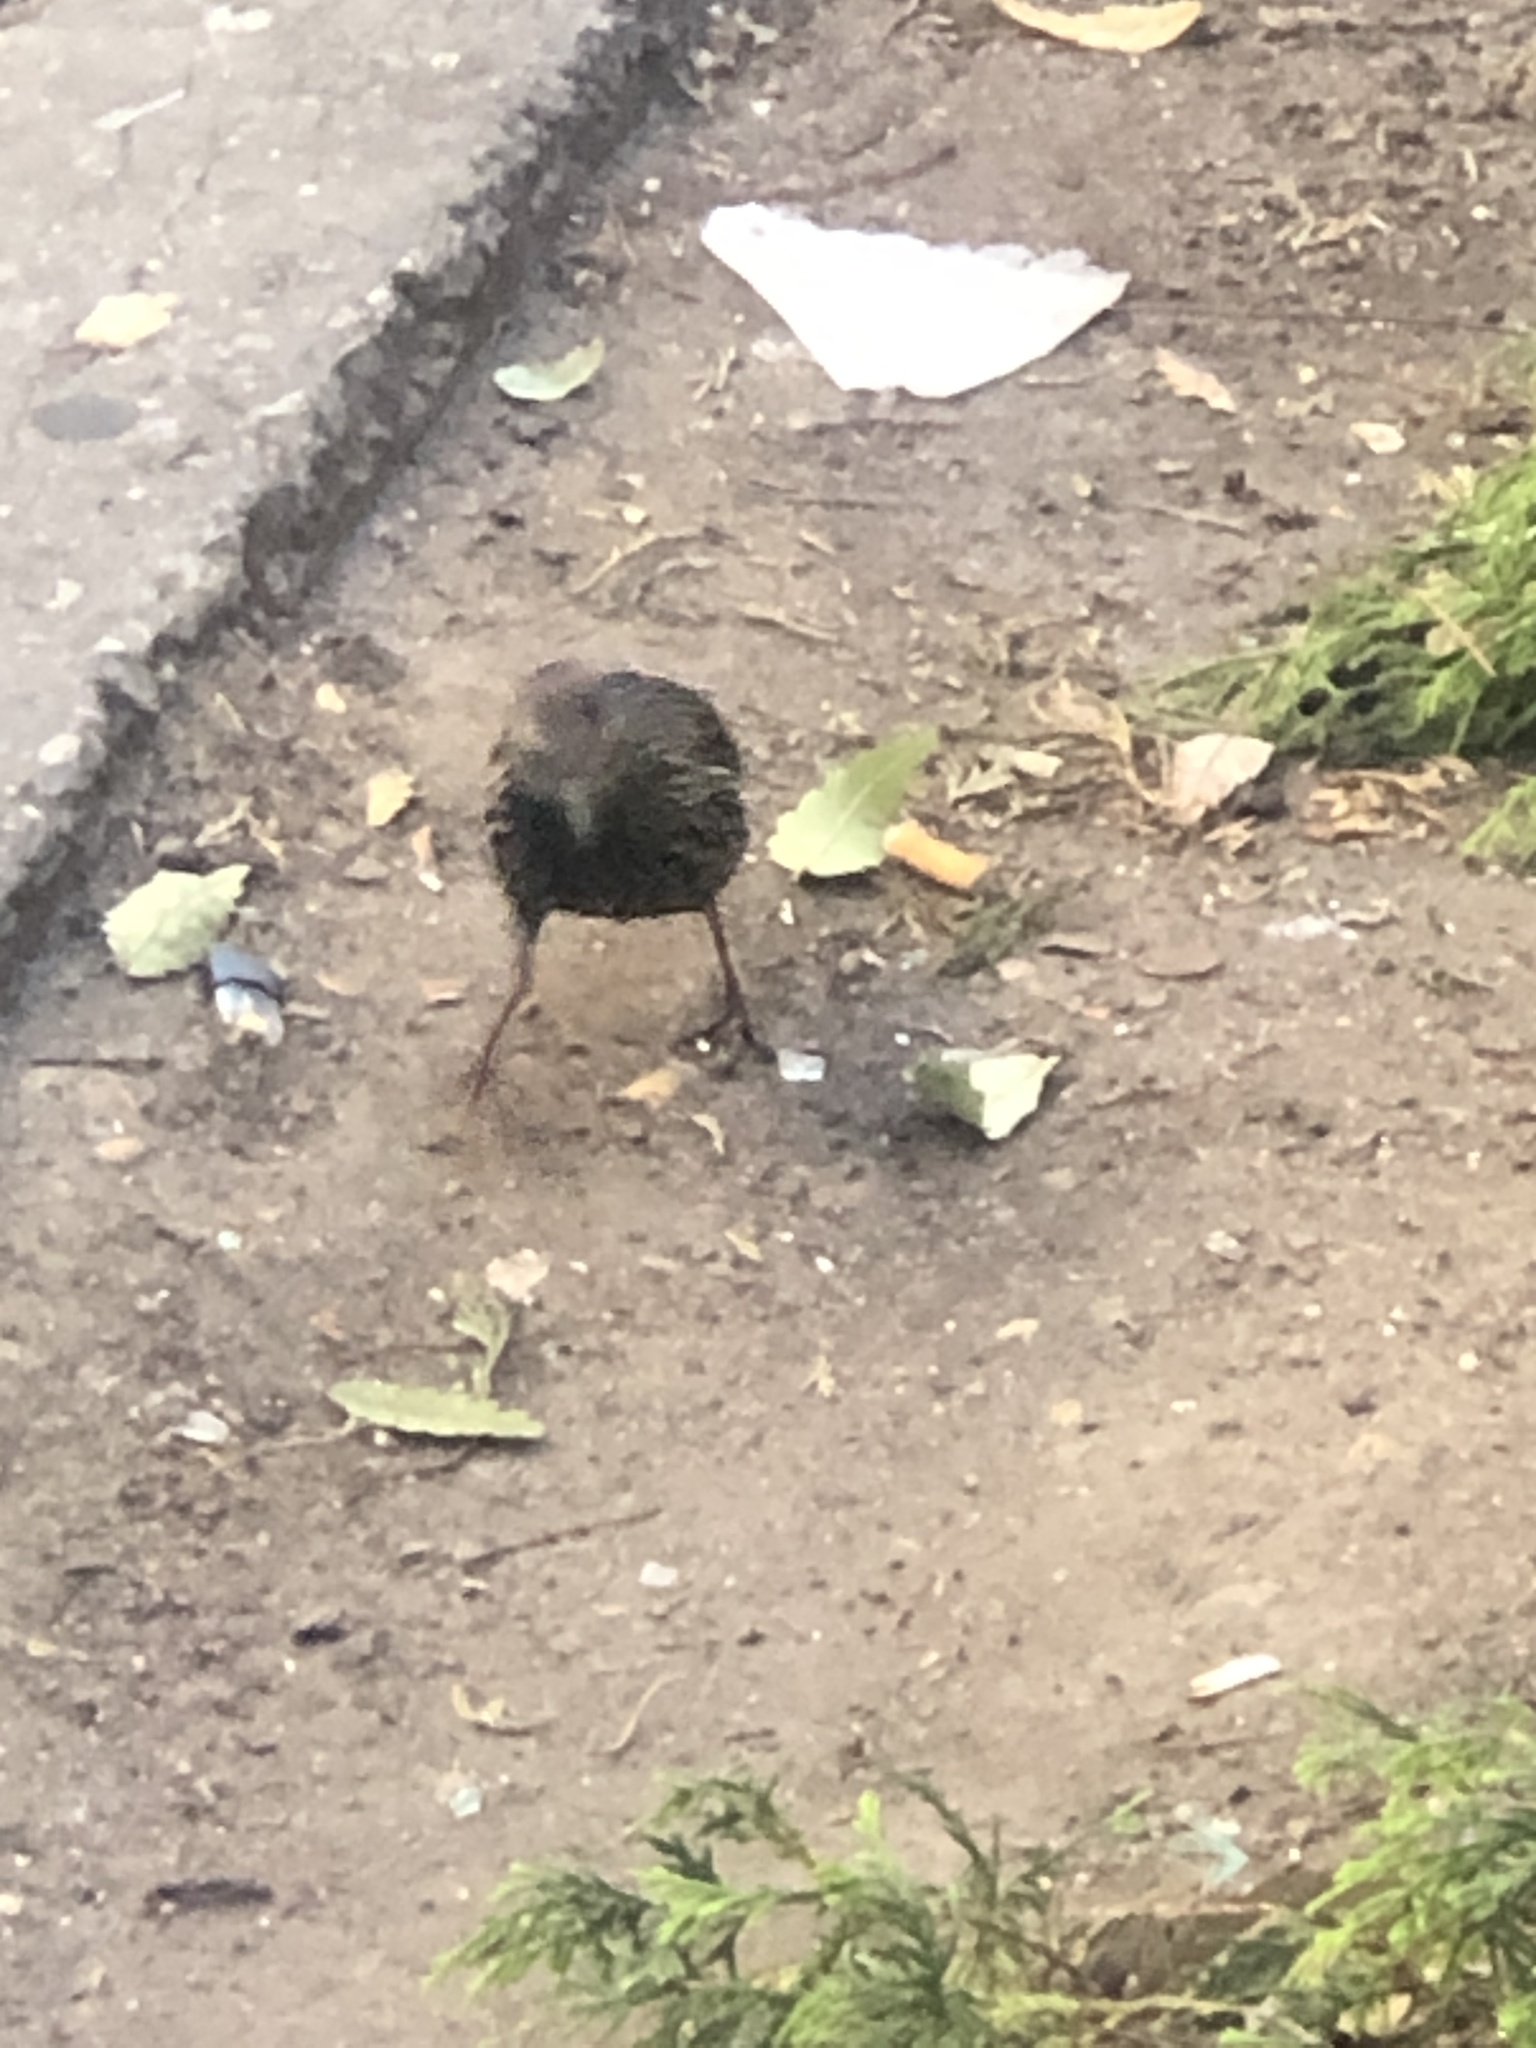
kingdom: Animalia
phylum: Chordata
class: Aves
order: Passeriformes
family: Sturnidae
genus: Sturnus
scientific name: Sturnus vulgaris
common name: Common starling
